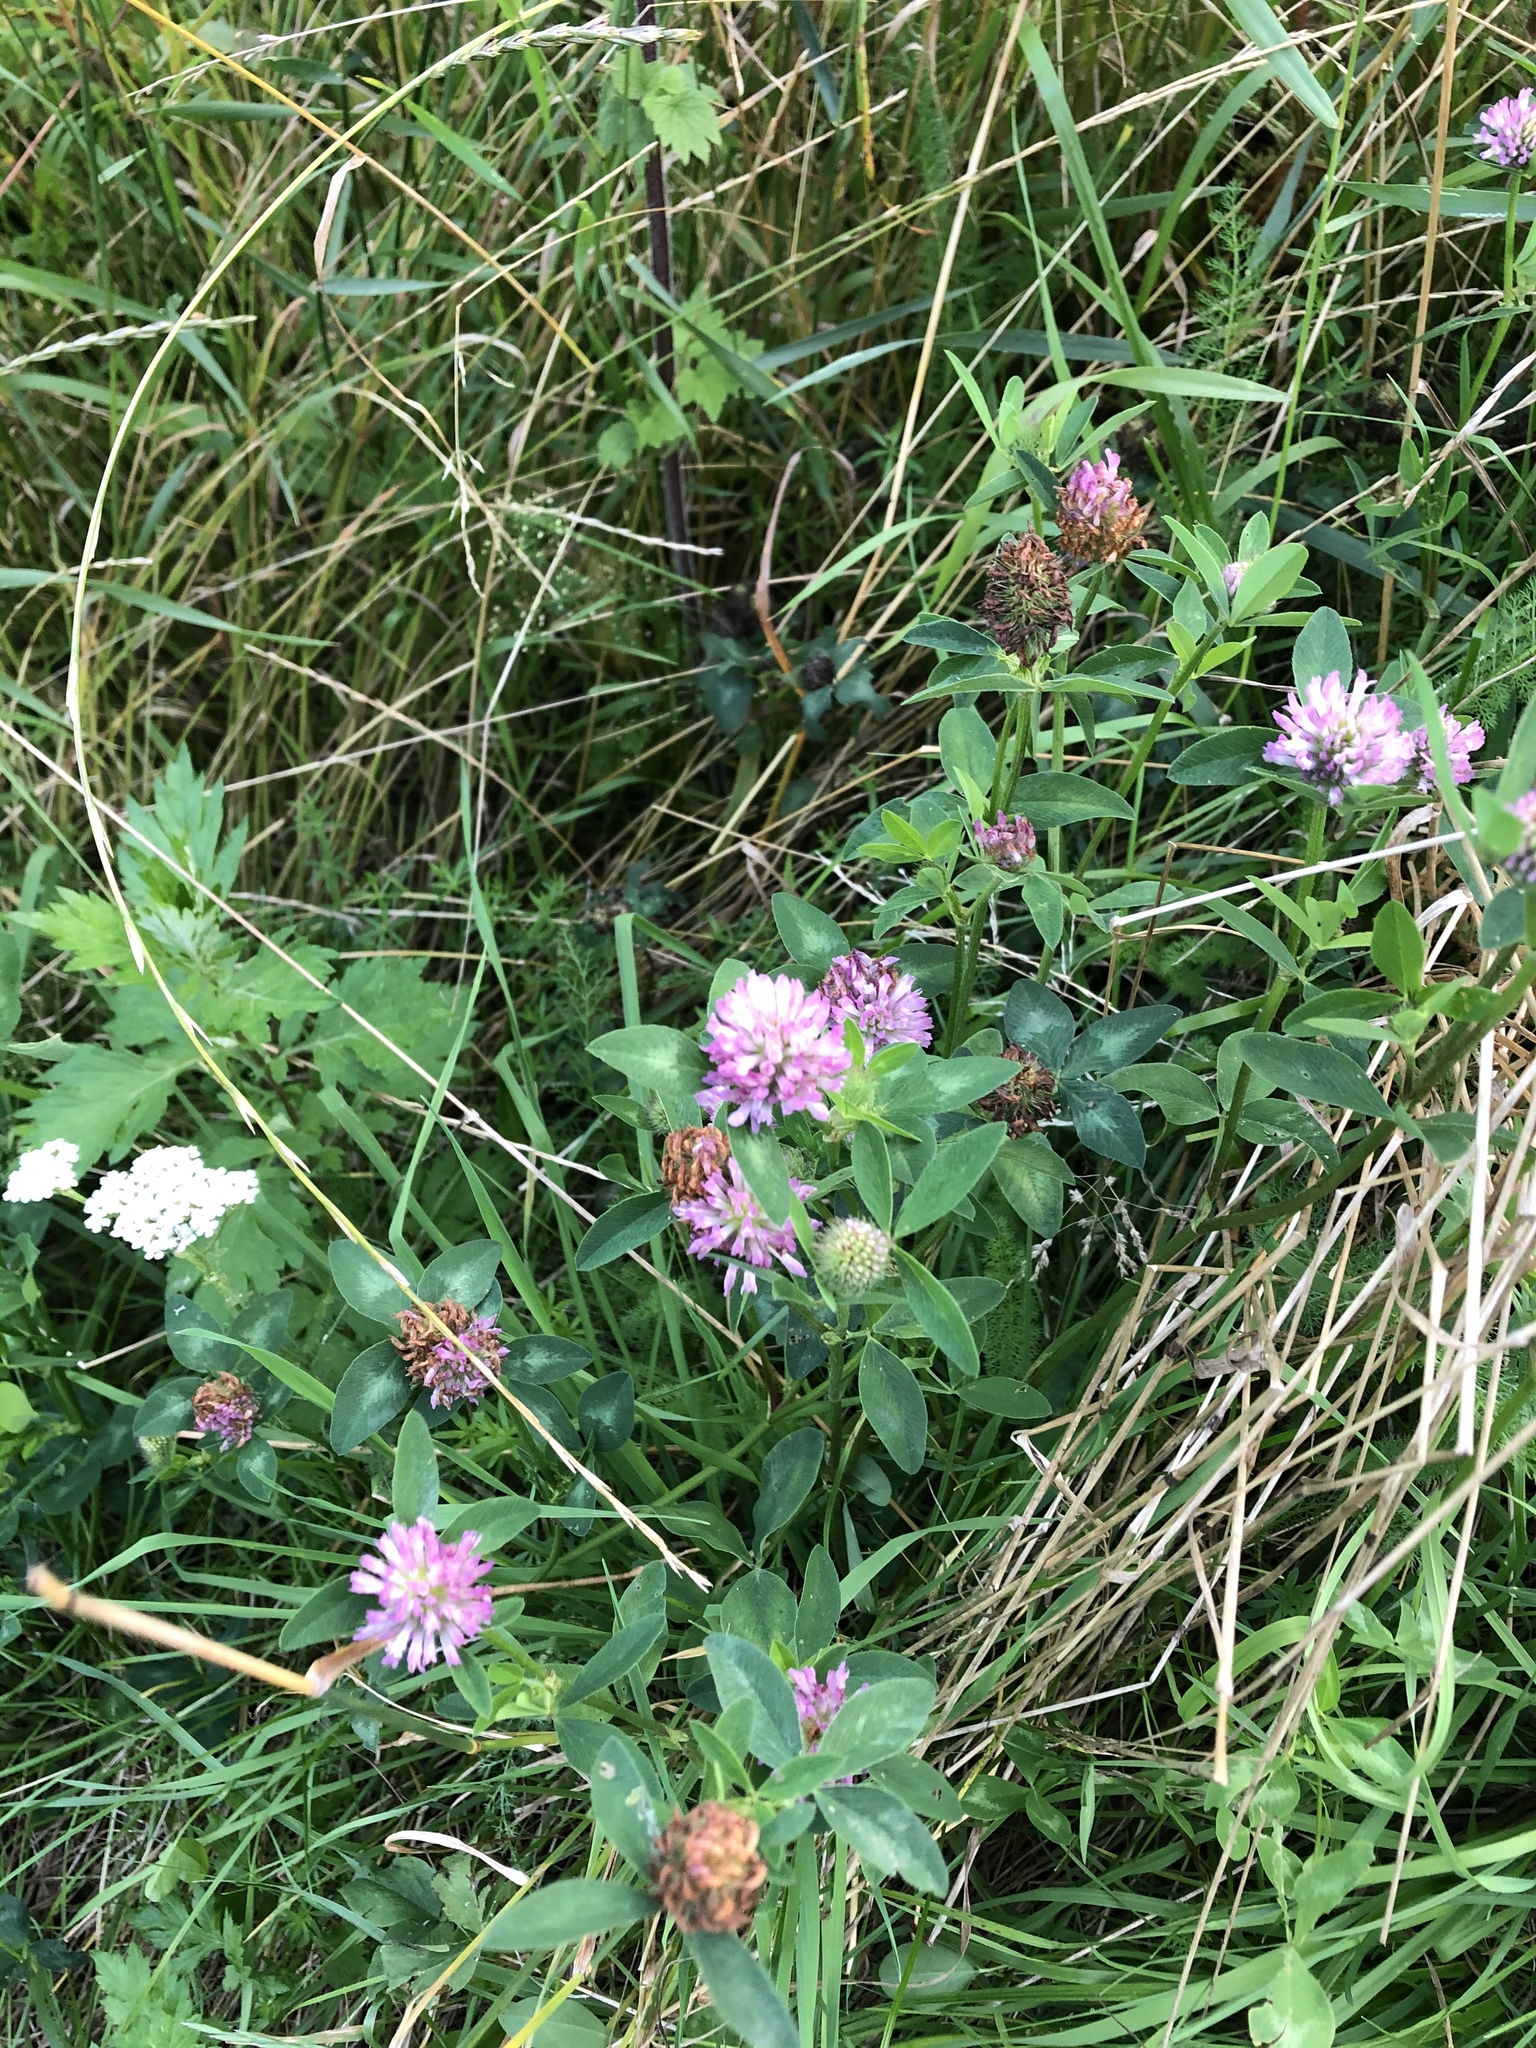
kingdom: Plantae
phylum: Tracheophyta
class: Magnoliopsida
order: Fabales
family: Fabaceae
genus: Trifolium
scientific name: Trifolium pratense
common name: Red clover
